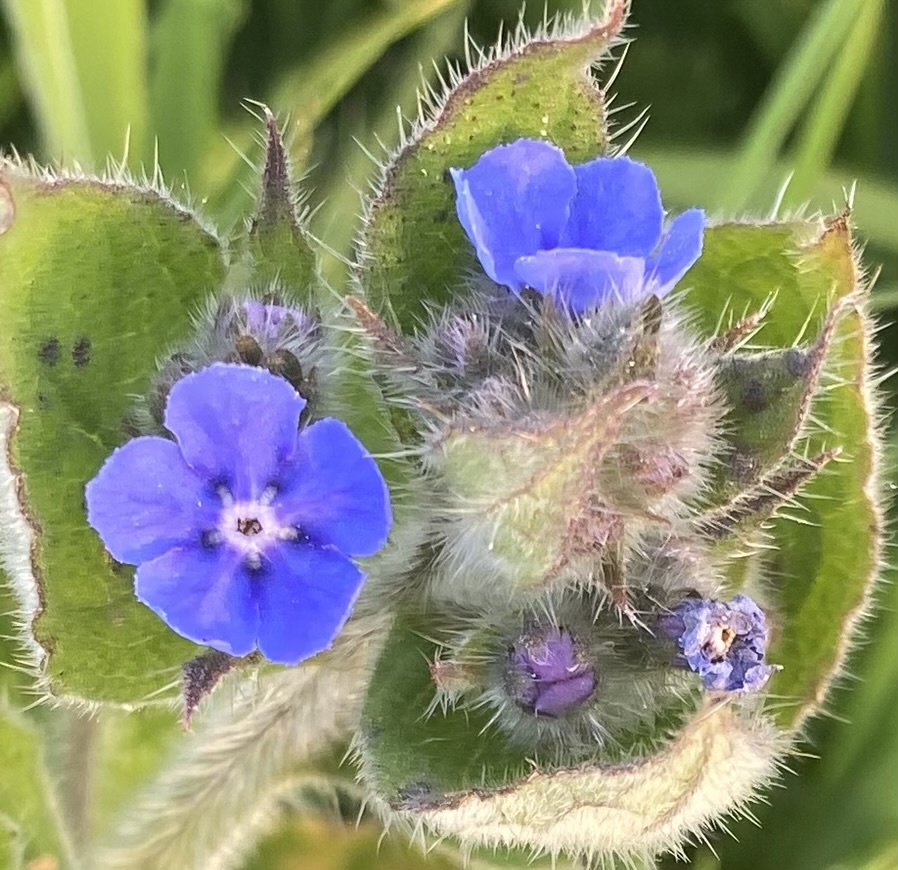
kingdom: Plantae
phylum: Tracheophyta
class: Magnoliopsida
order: Boraginales
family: Boraginaceae
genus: Pentaglottis
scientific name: Pentaglottis sempervirens
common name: Green alkanet
